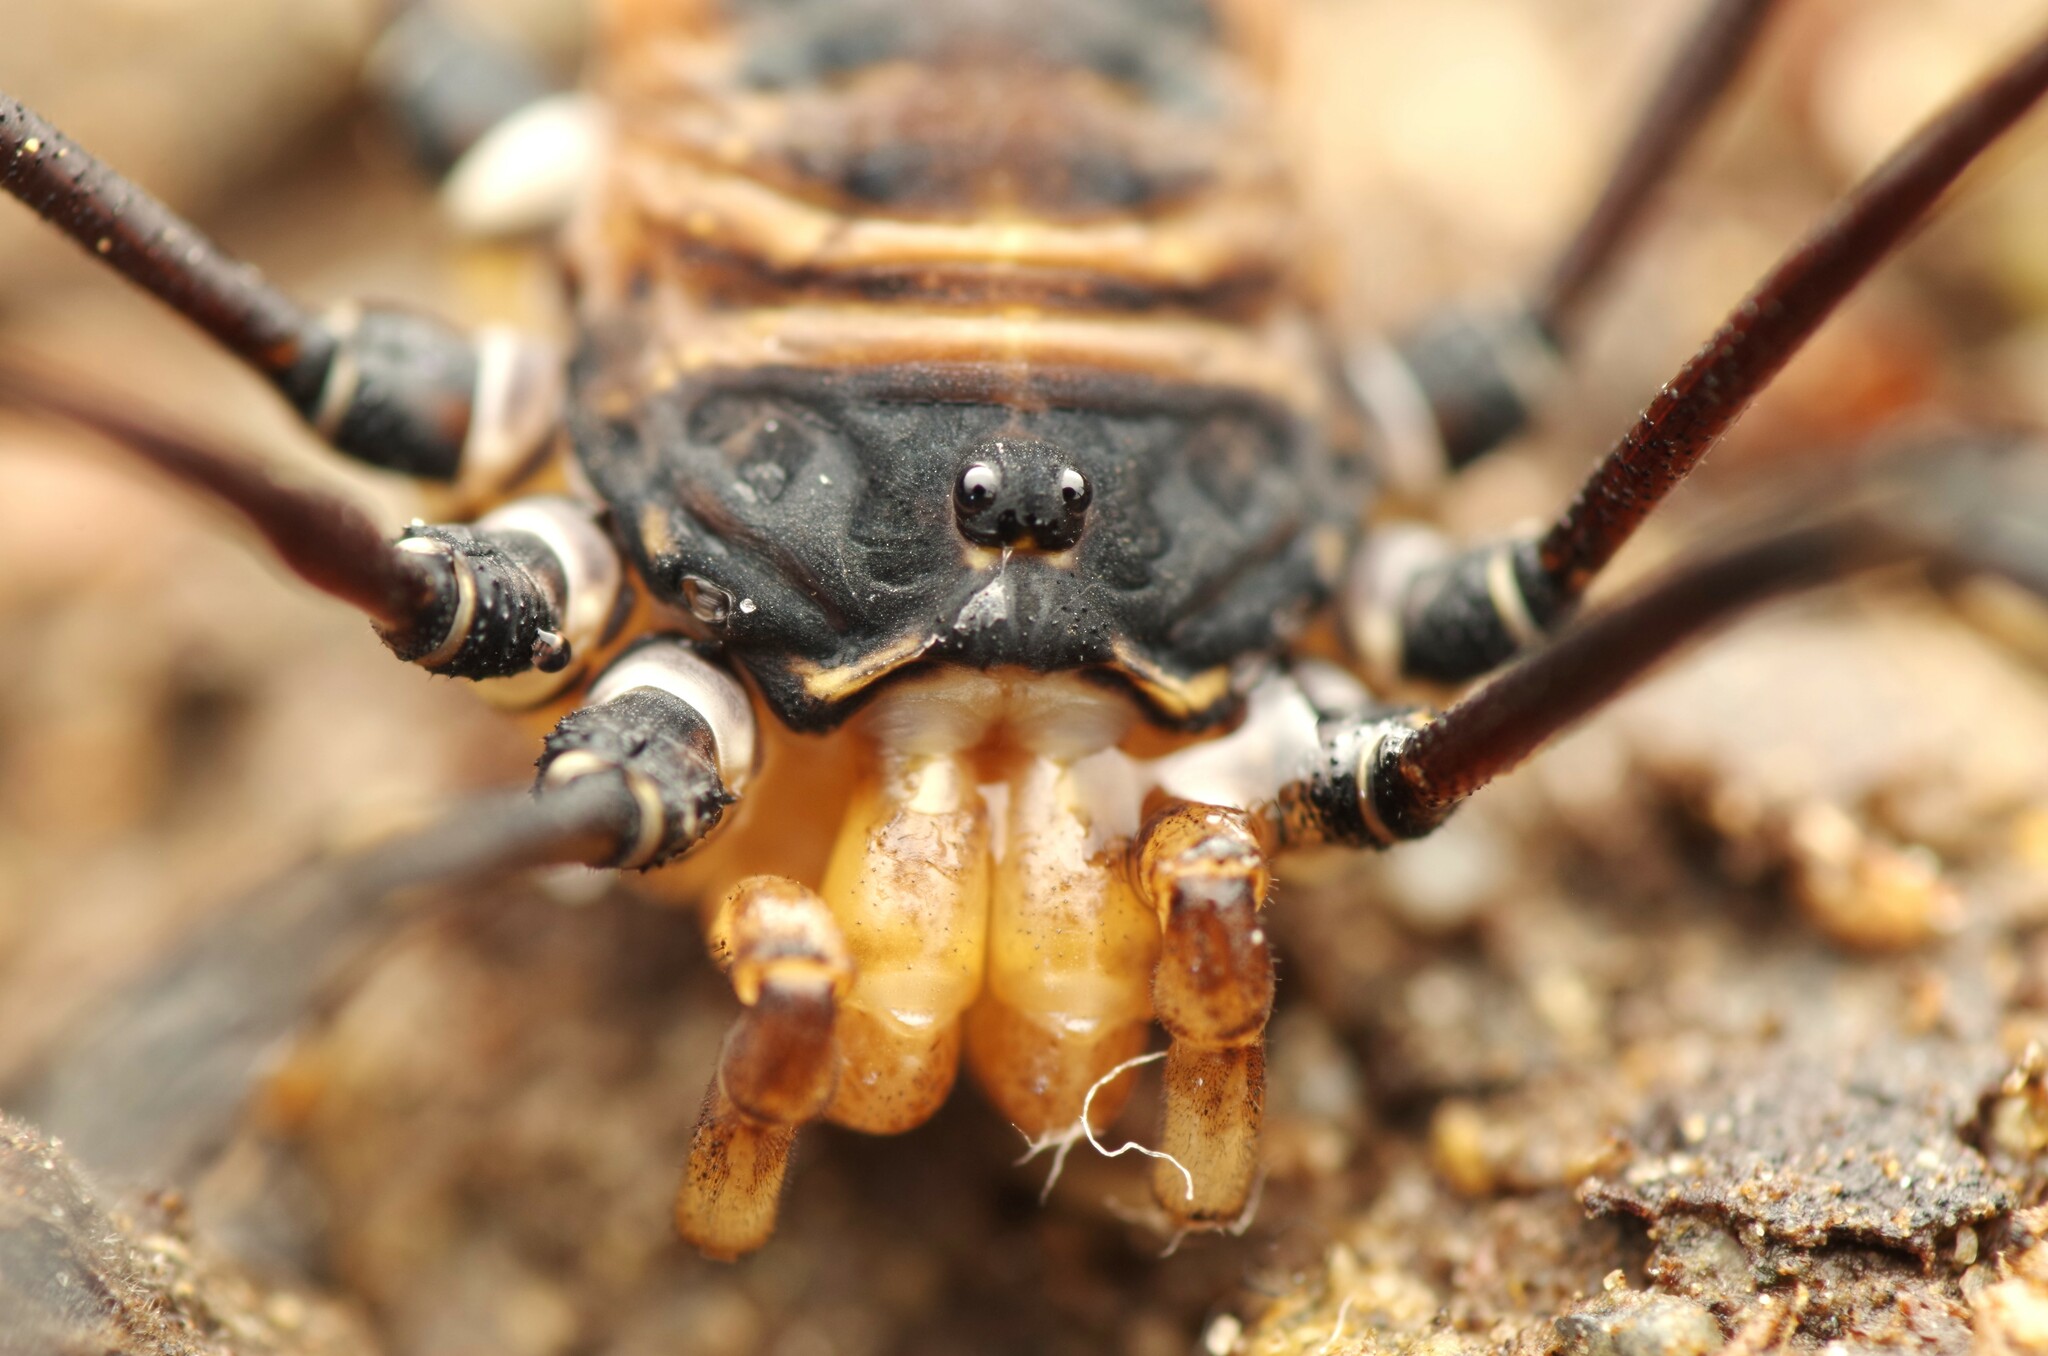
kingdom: Animalia
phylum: Arthropoda
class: Arachnida
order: Opiliones
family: Sclerosomatidae
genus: Gyas
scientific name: Gyas titanus
